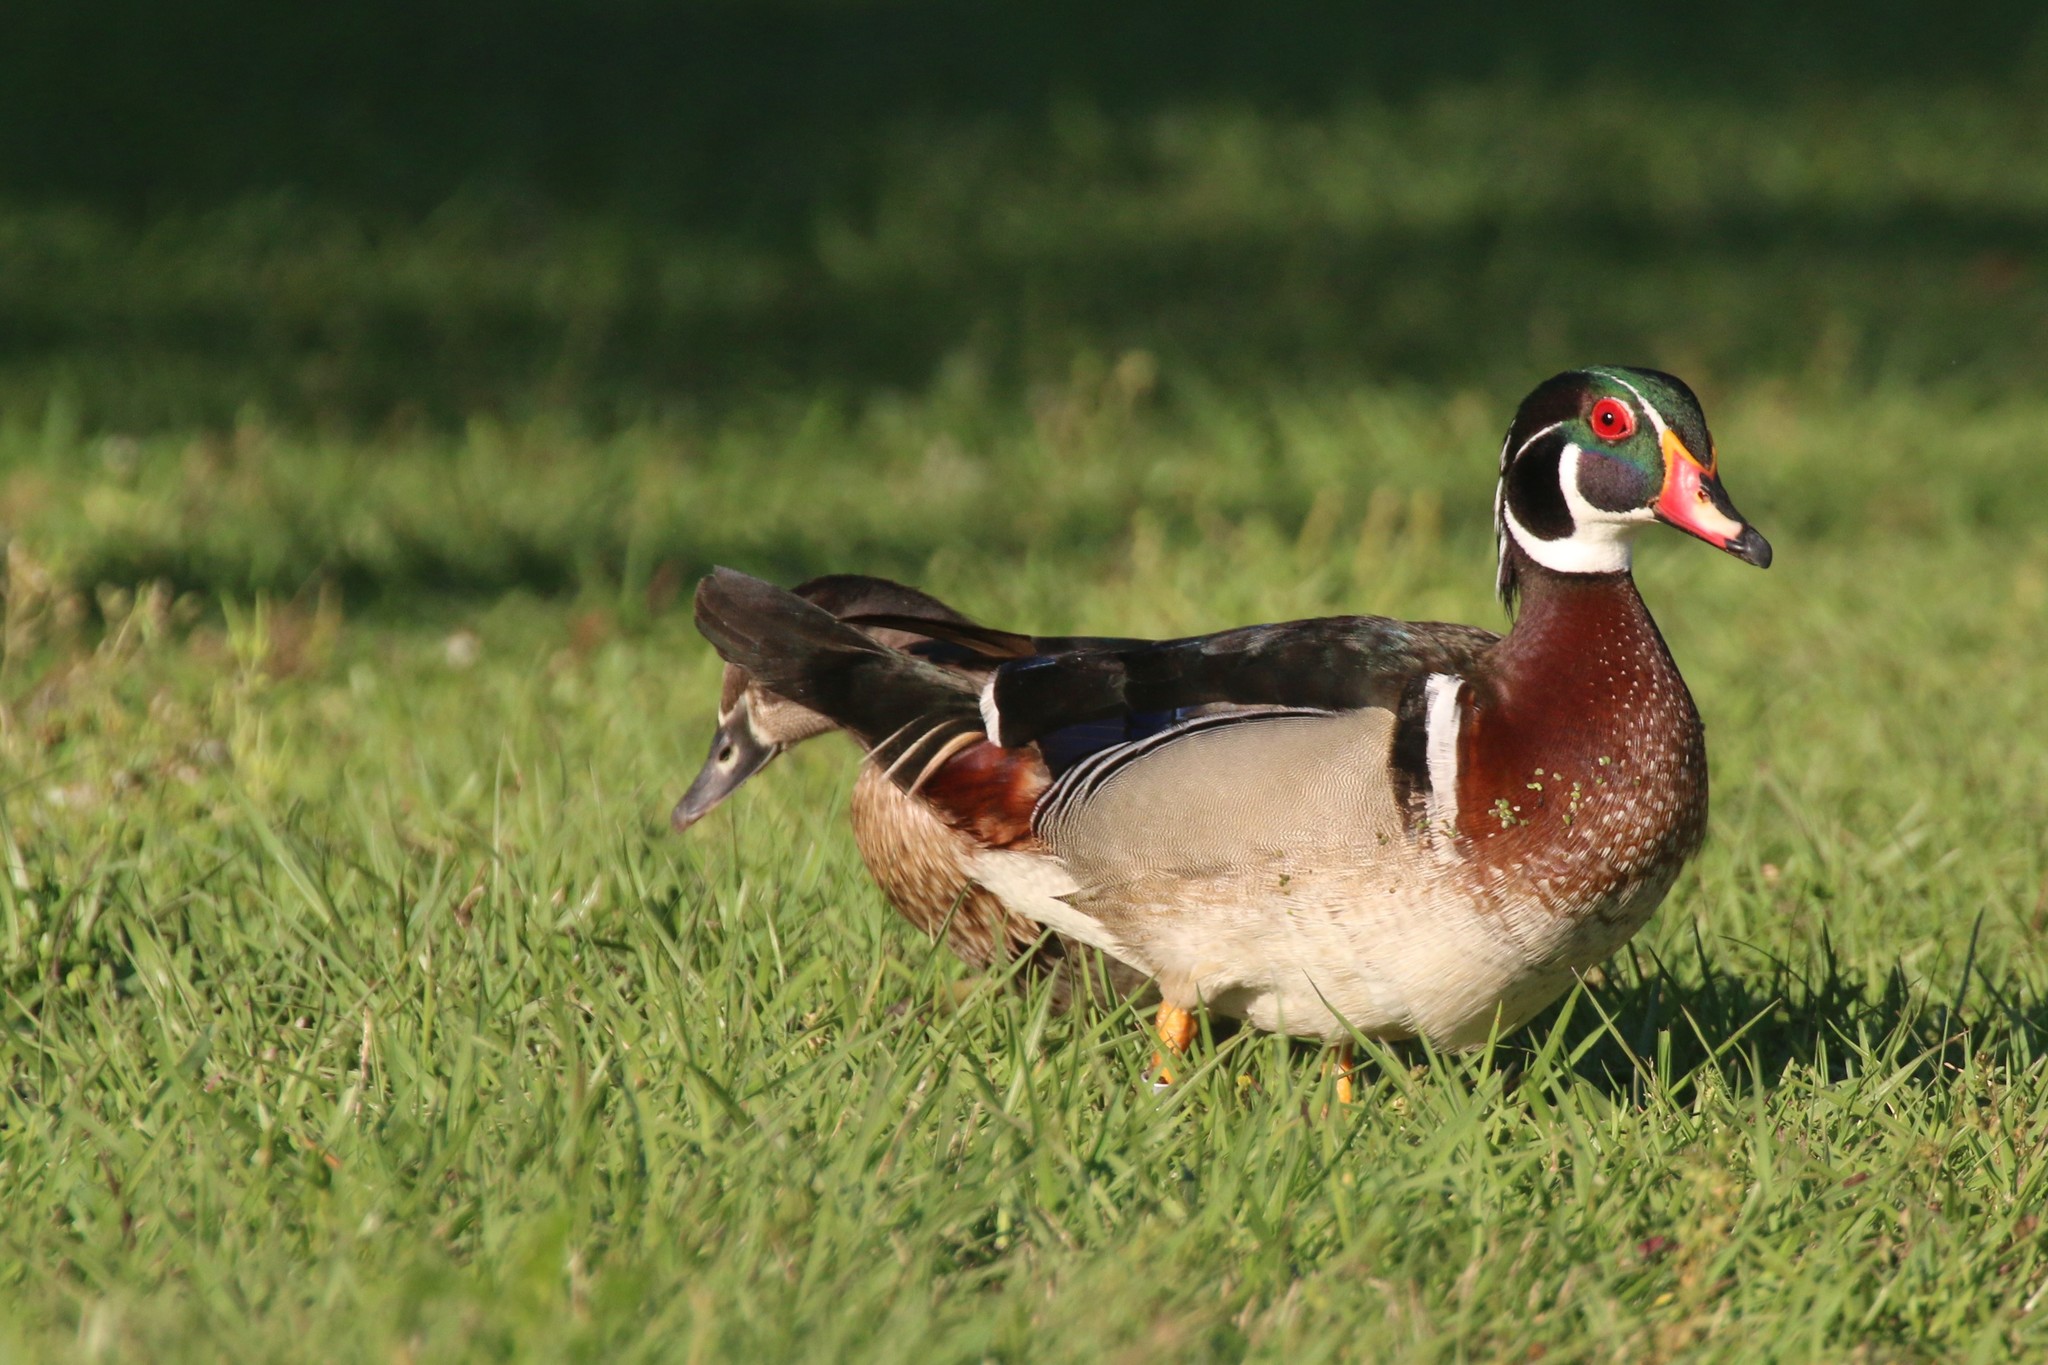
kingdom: Animalia
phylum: Chordata
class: Aves
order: Anseriformes
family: Anatidae
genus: Aix
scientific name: Aix sponsa
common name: Wood duck
